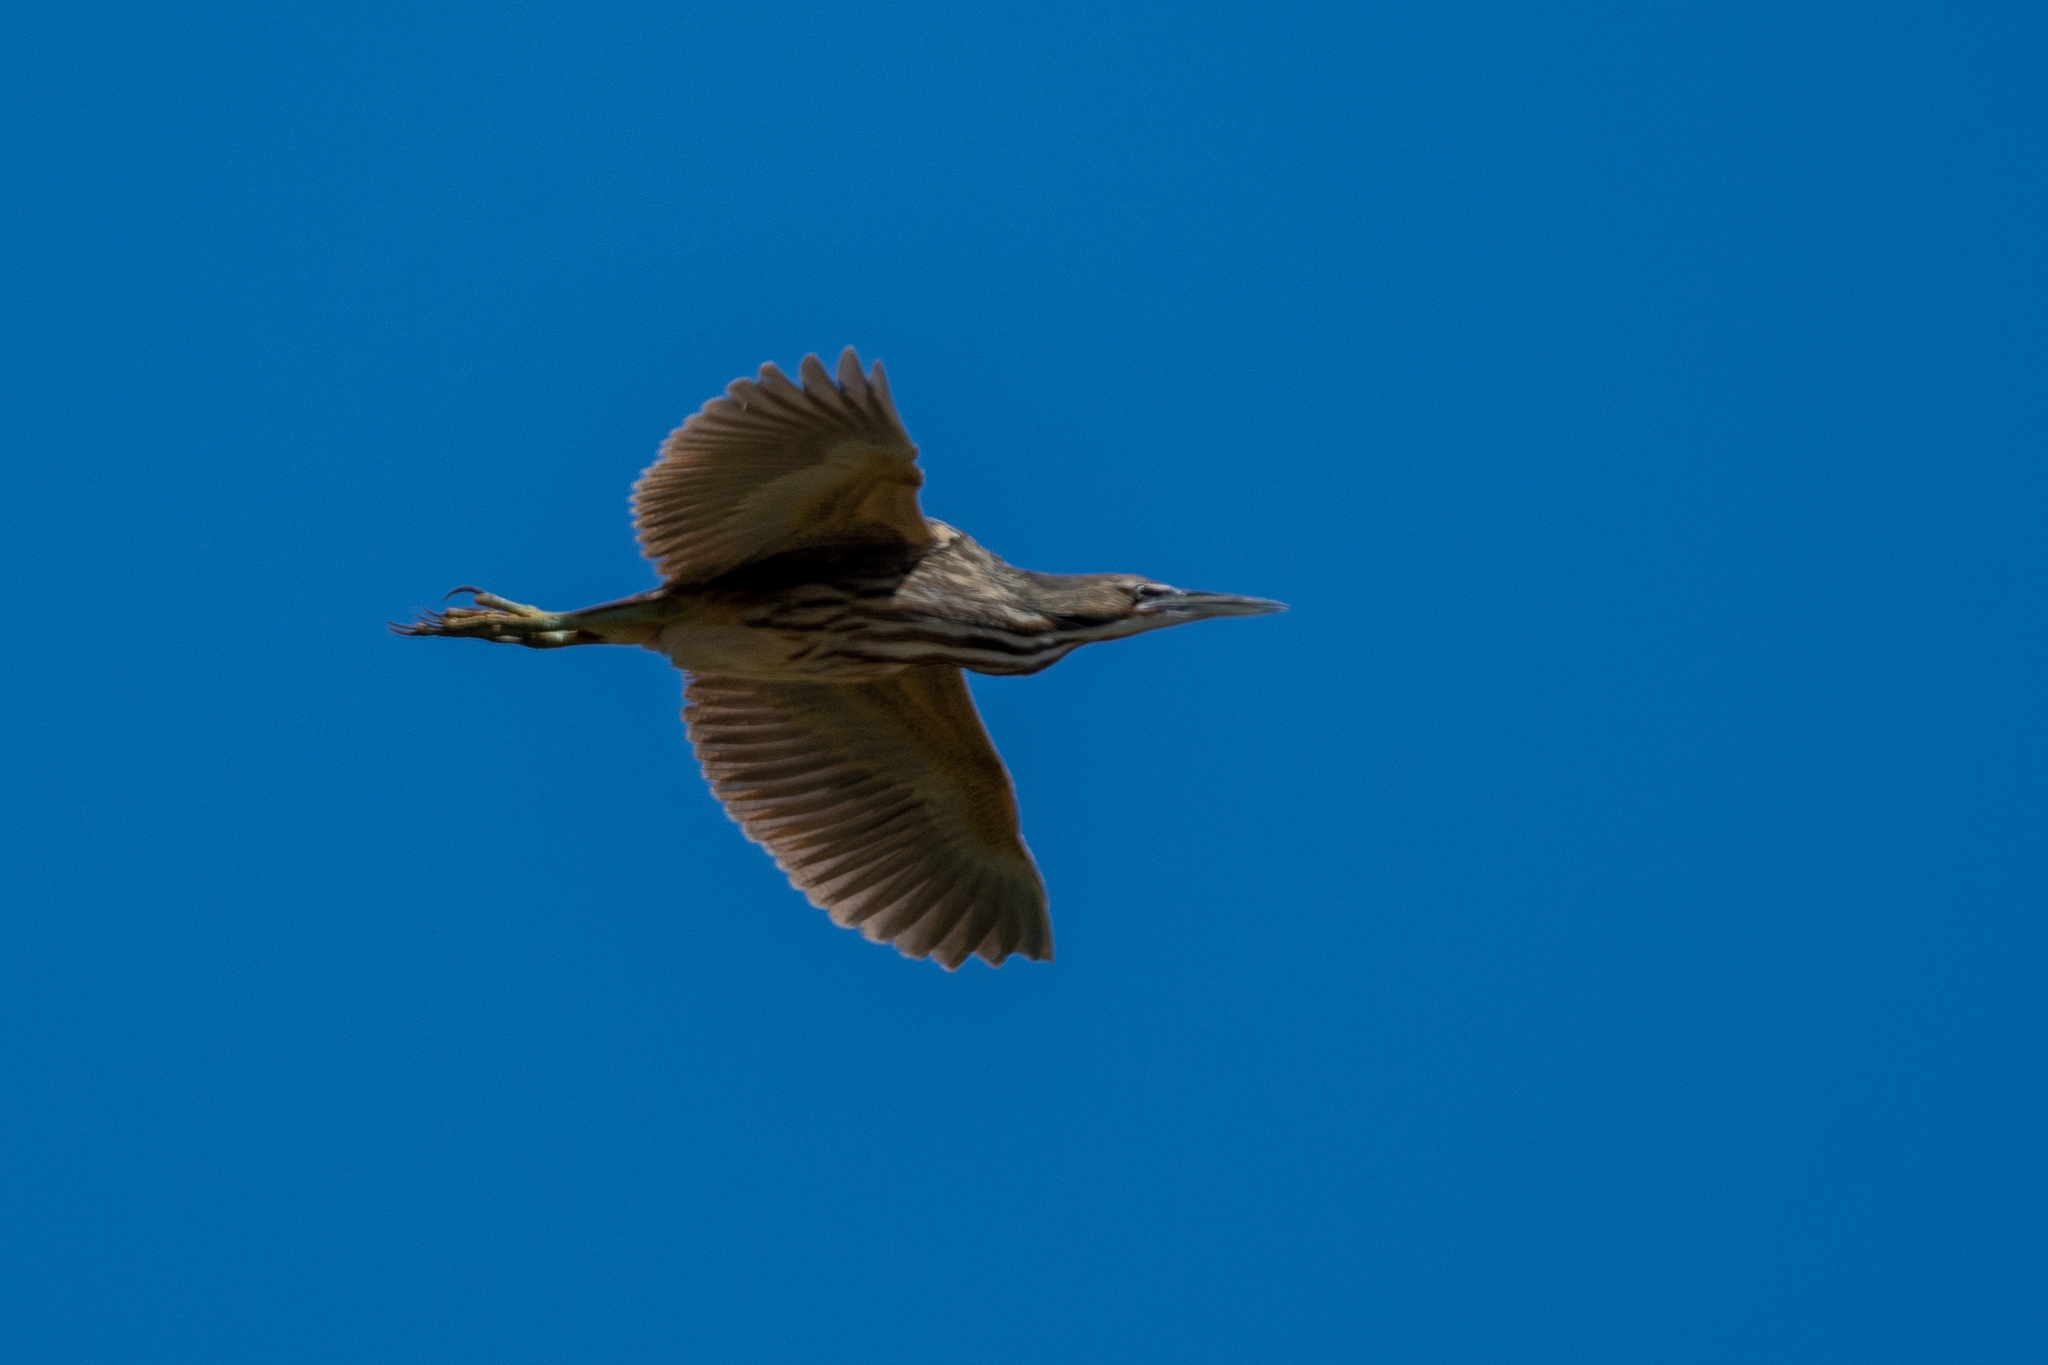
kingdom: Animalia
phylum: Chordata
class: Aves
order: Pelecaniformes
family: Ardeidae
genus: Botaurus
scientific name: Botaurus lentiginosus
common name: American bittern
